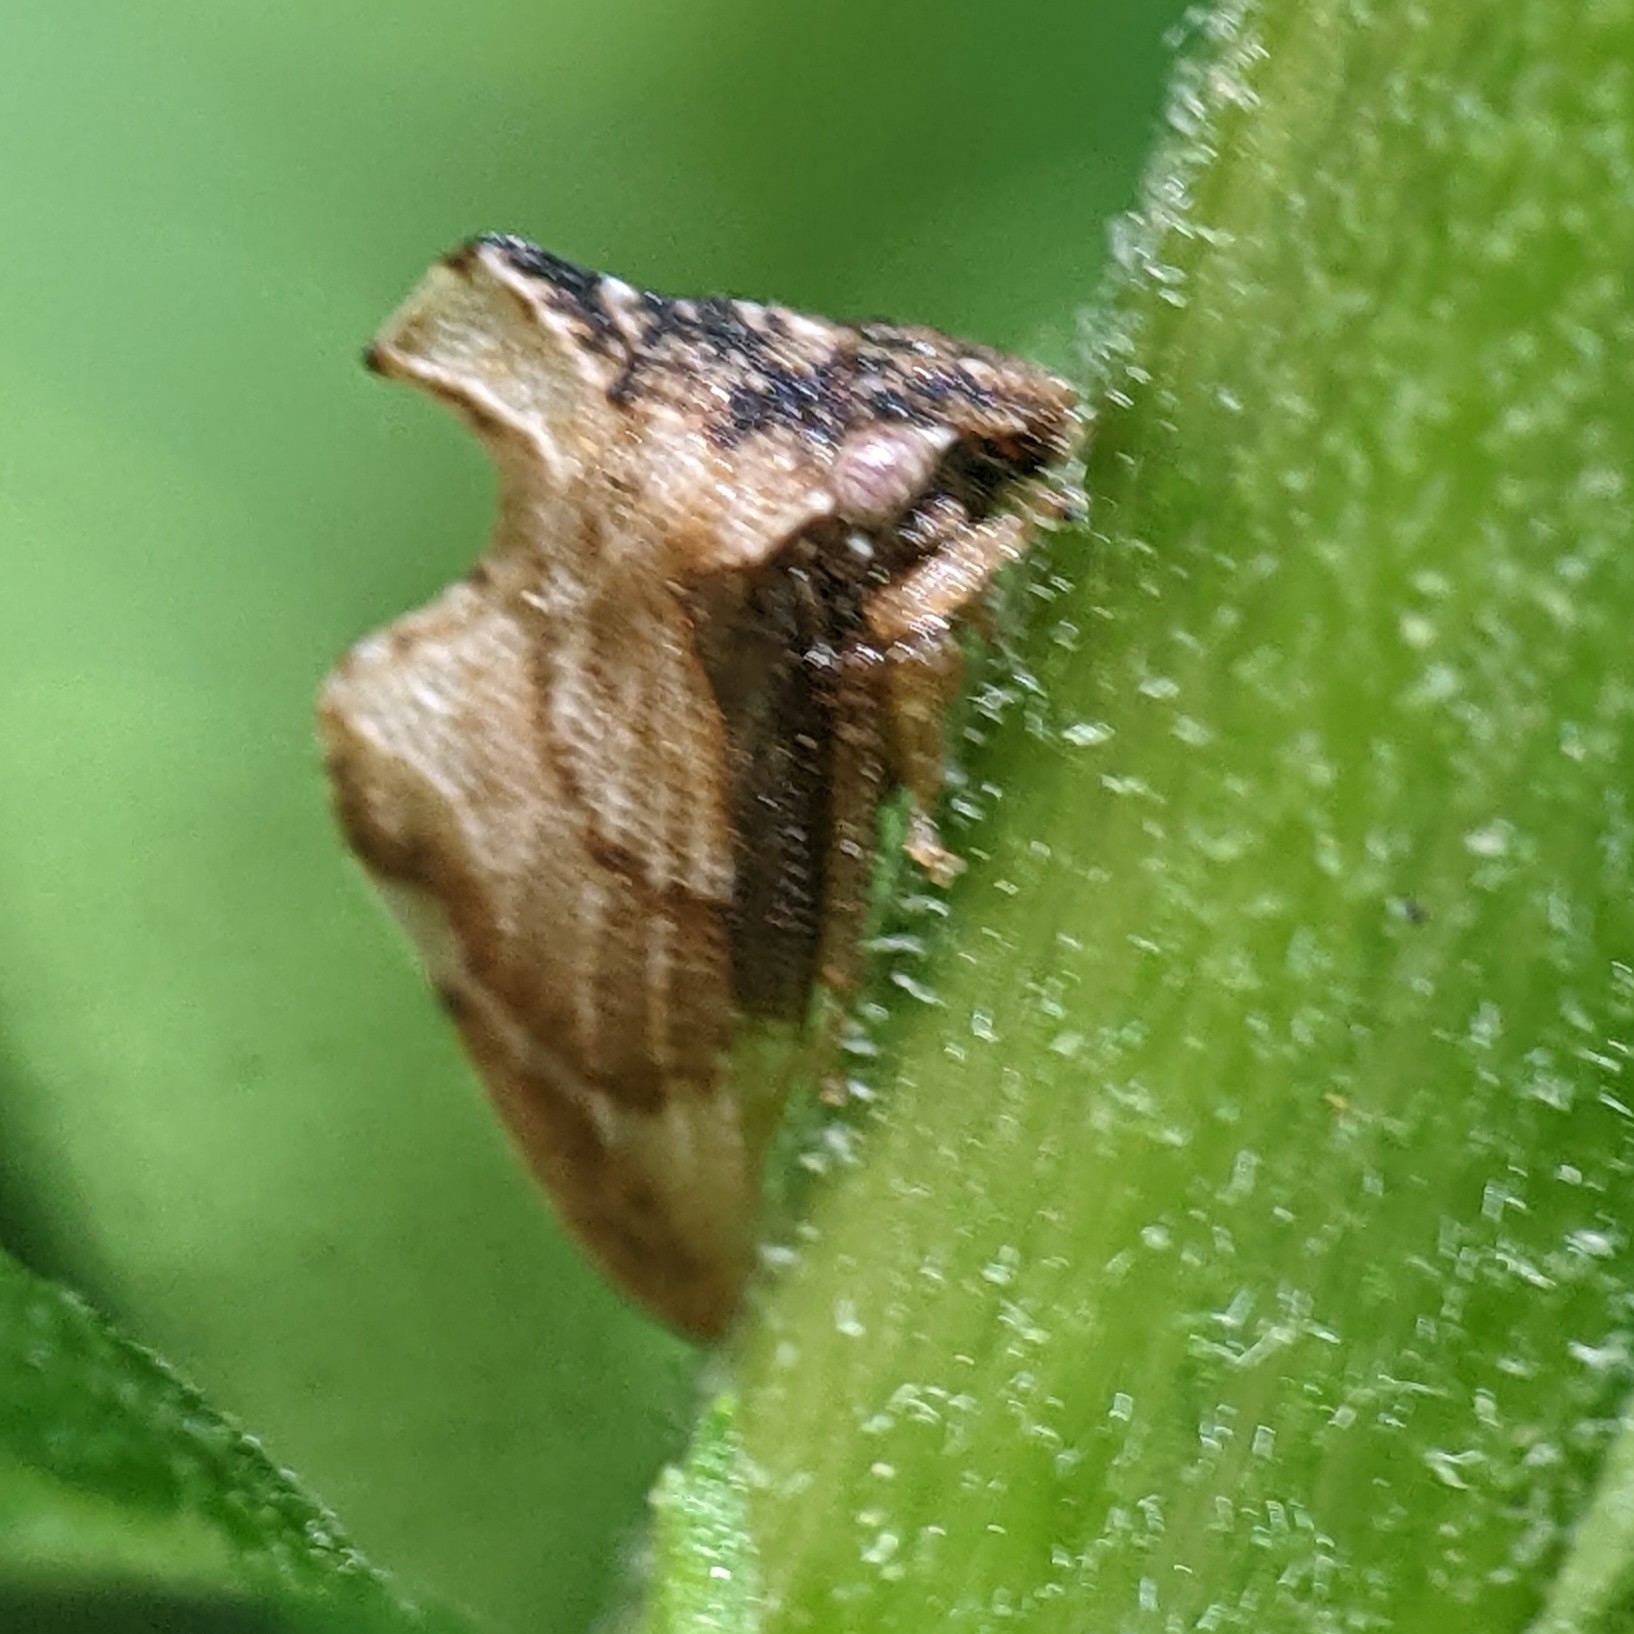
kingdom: Animalia
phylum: Arthropoda
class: Insecta
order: Hemiptera
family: Membracidae
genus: Entylia
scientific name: Entylia carinata
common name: Keeled treehopper
